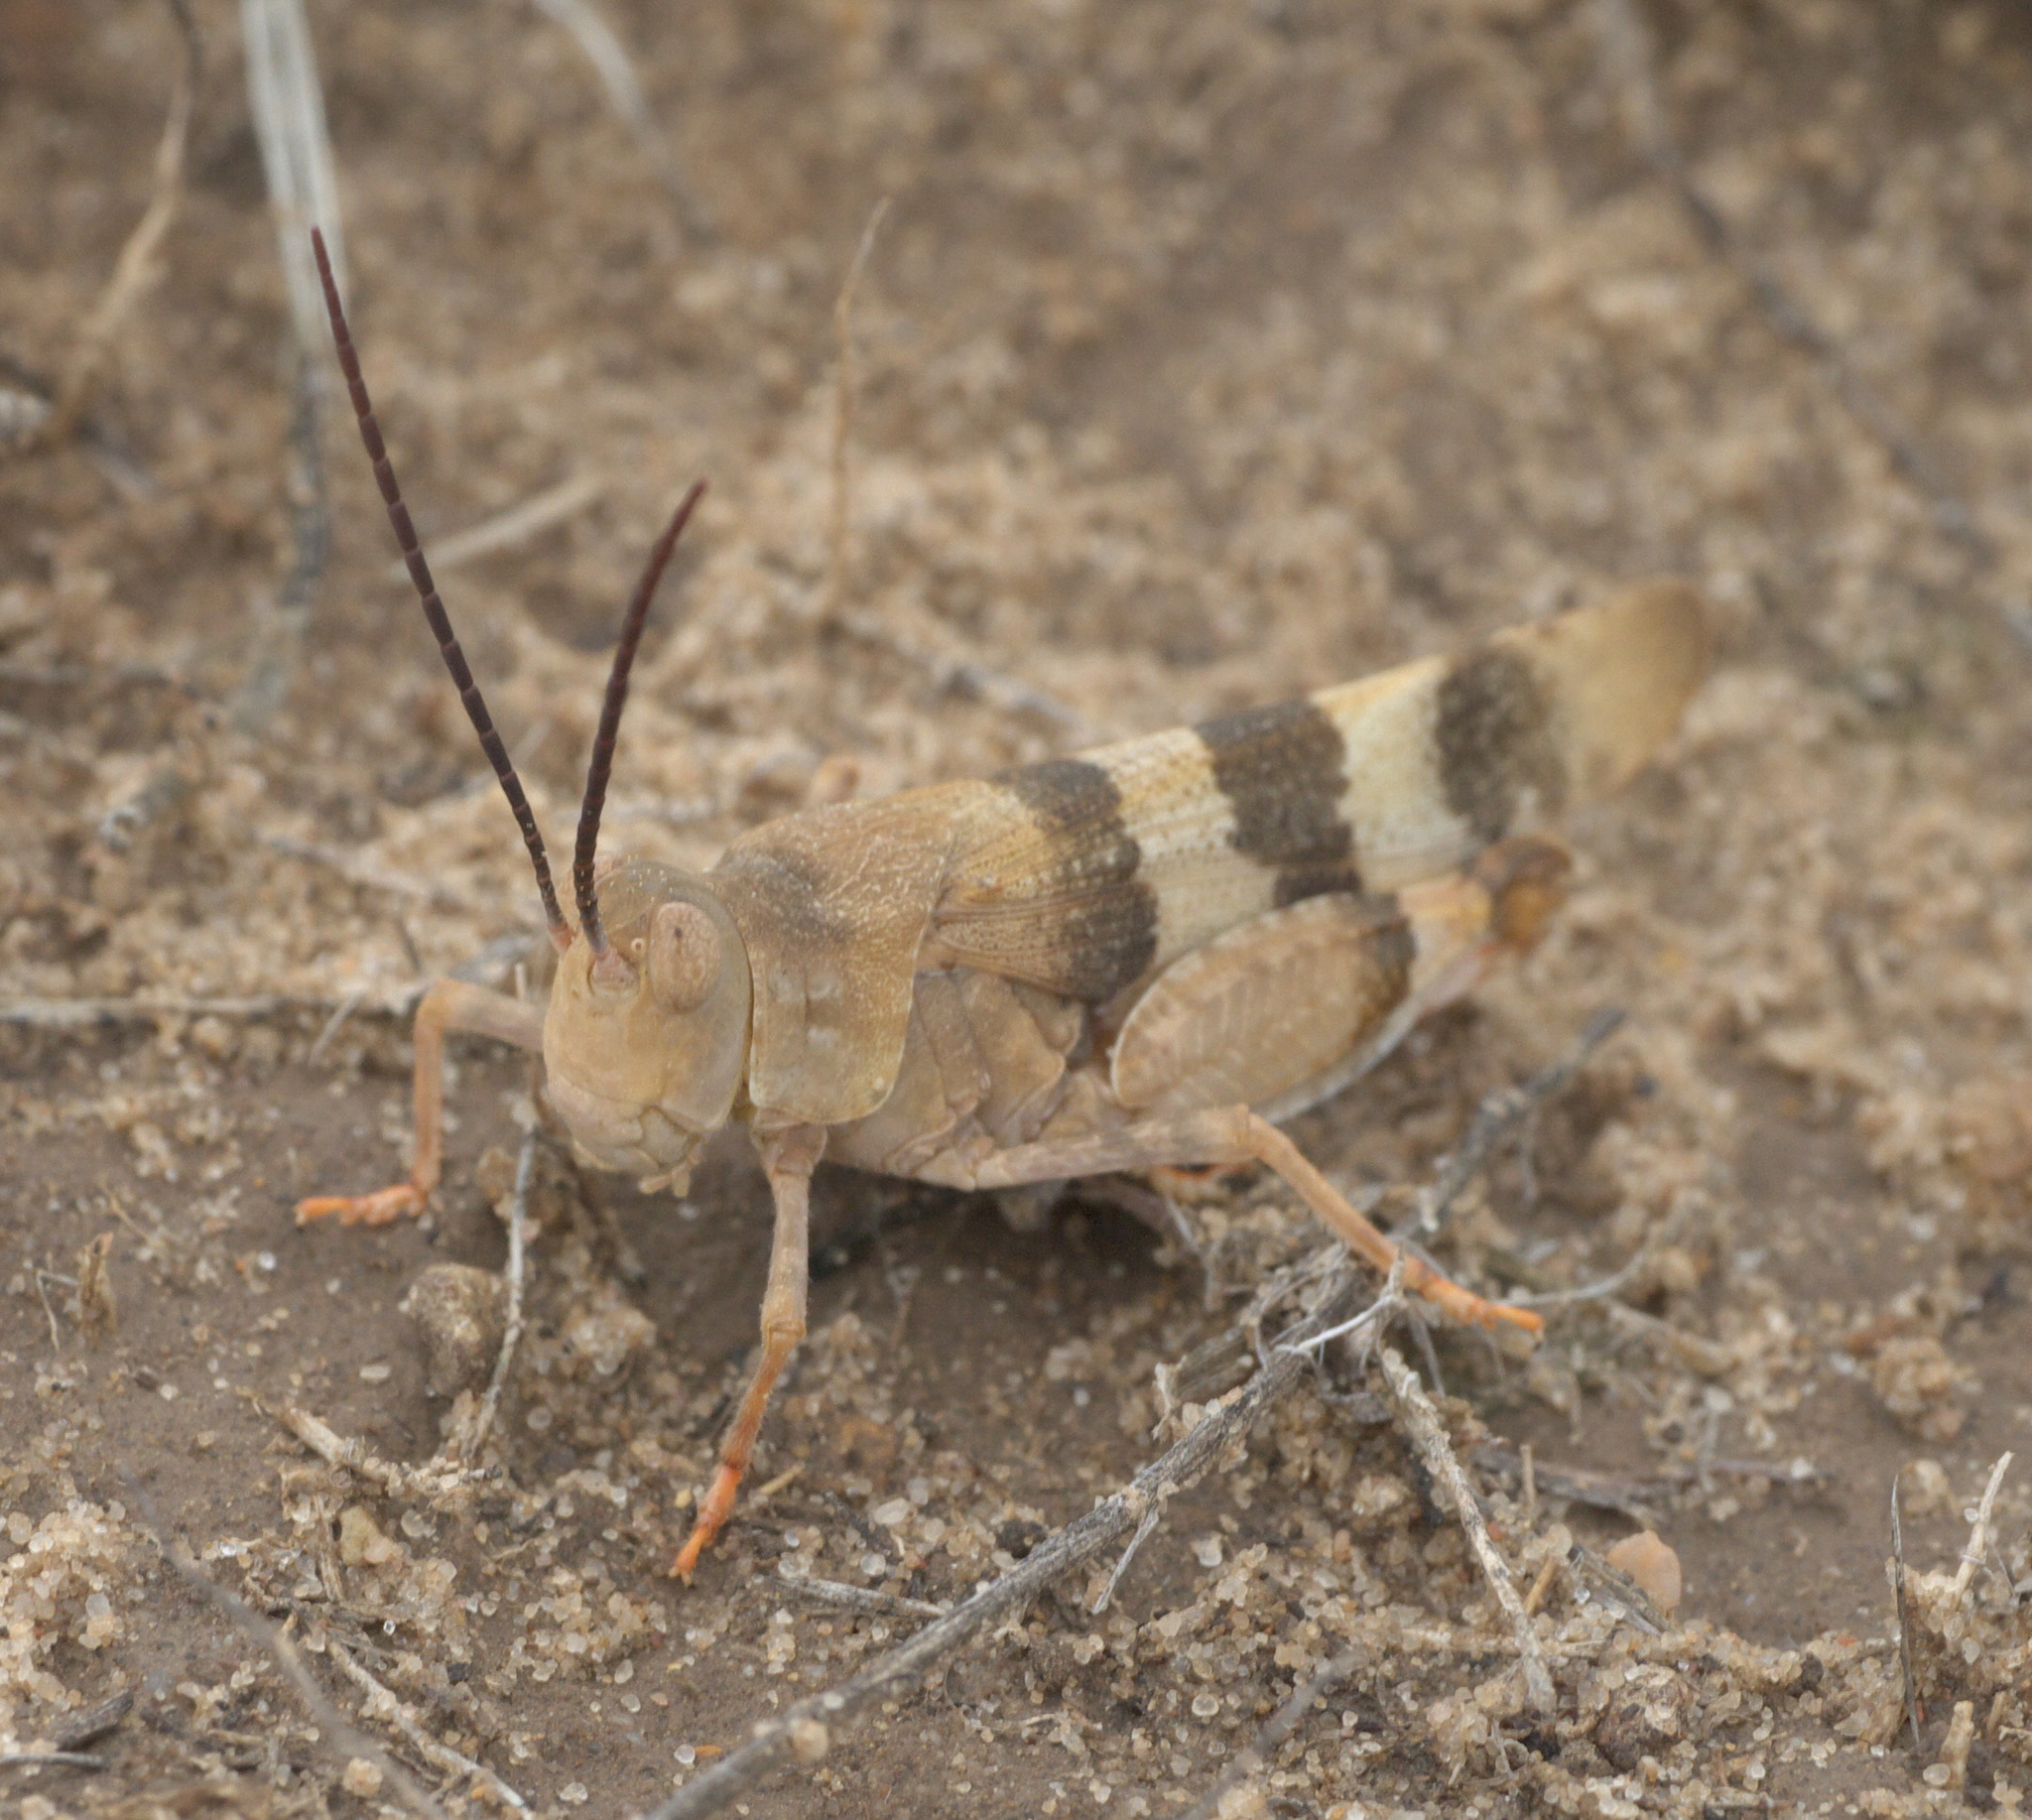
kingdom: Animalia
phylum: Arthropoda
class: Insecta
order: Orthoptera
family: Acrididae
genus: Hadrotettix
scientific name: Hadrotettix trifasciatus
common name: Threebanded grasshopper
